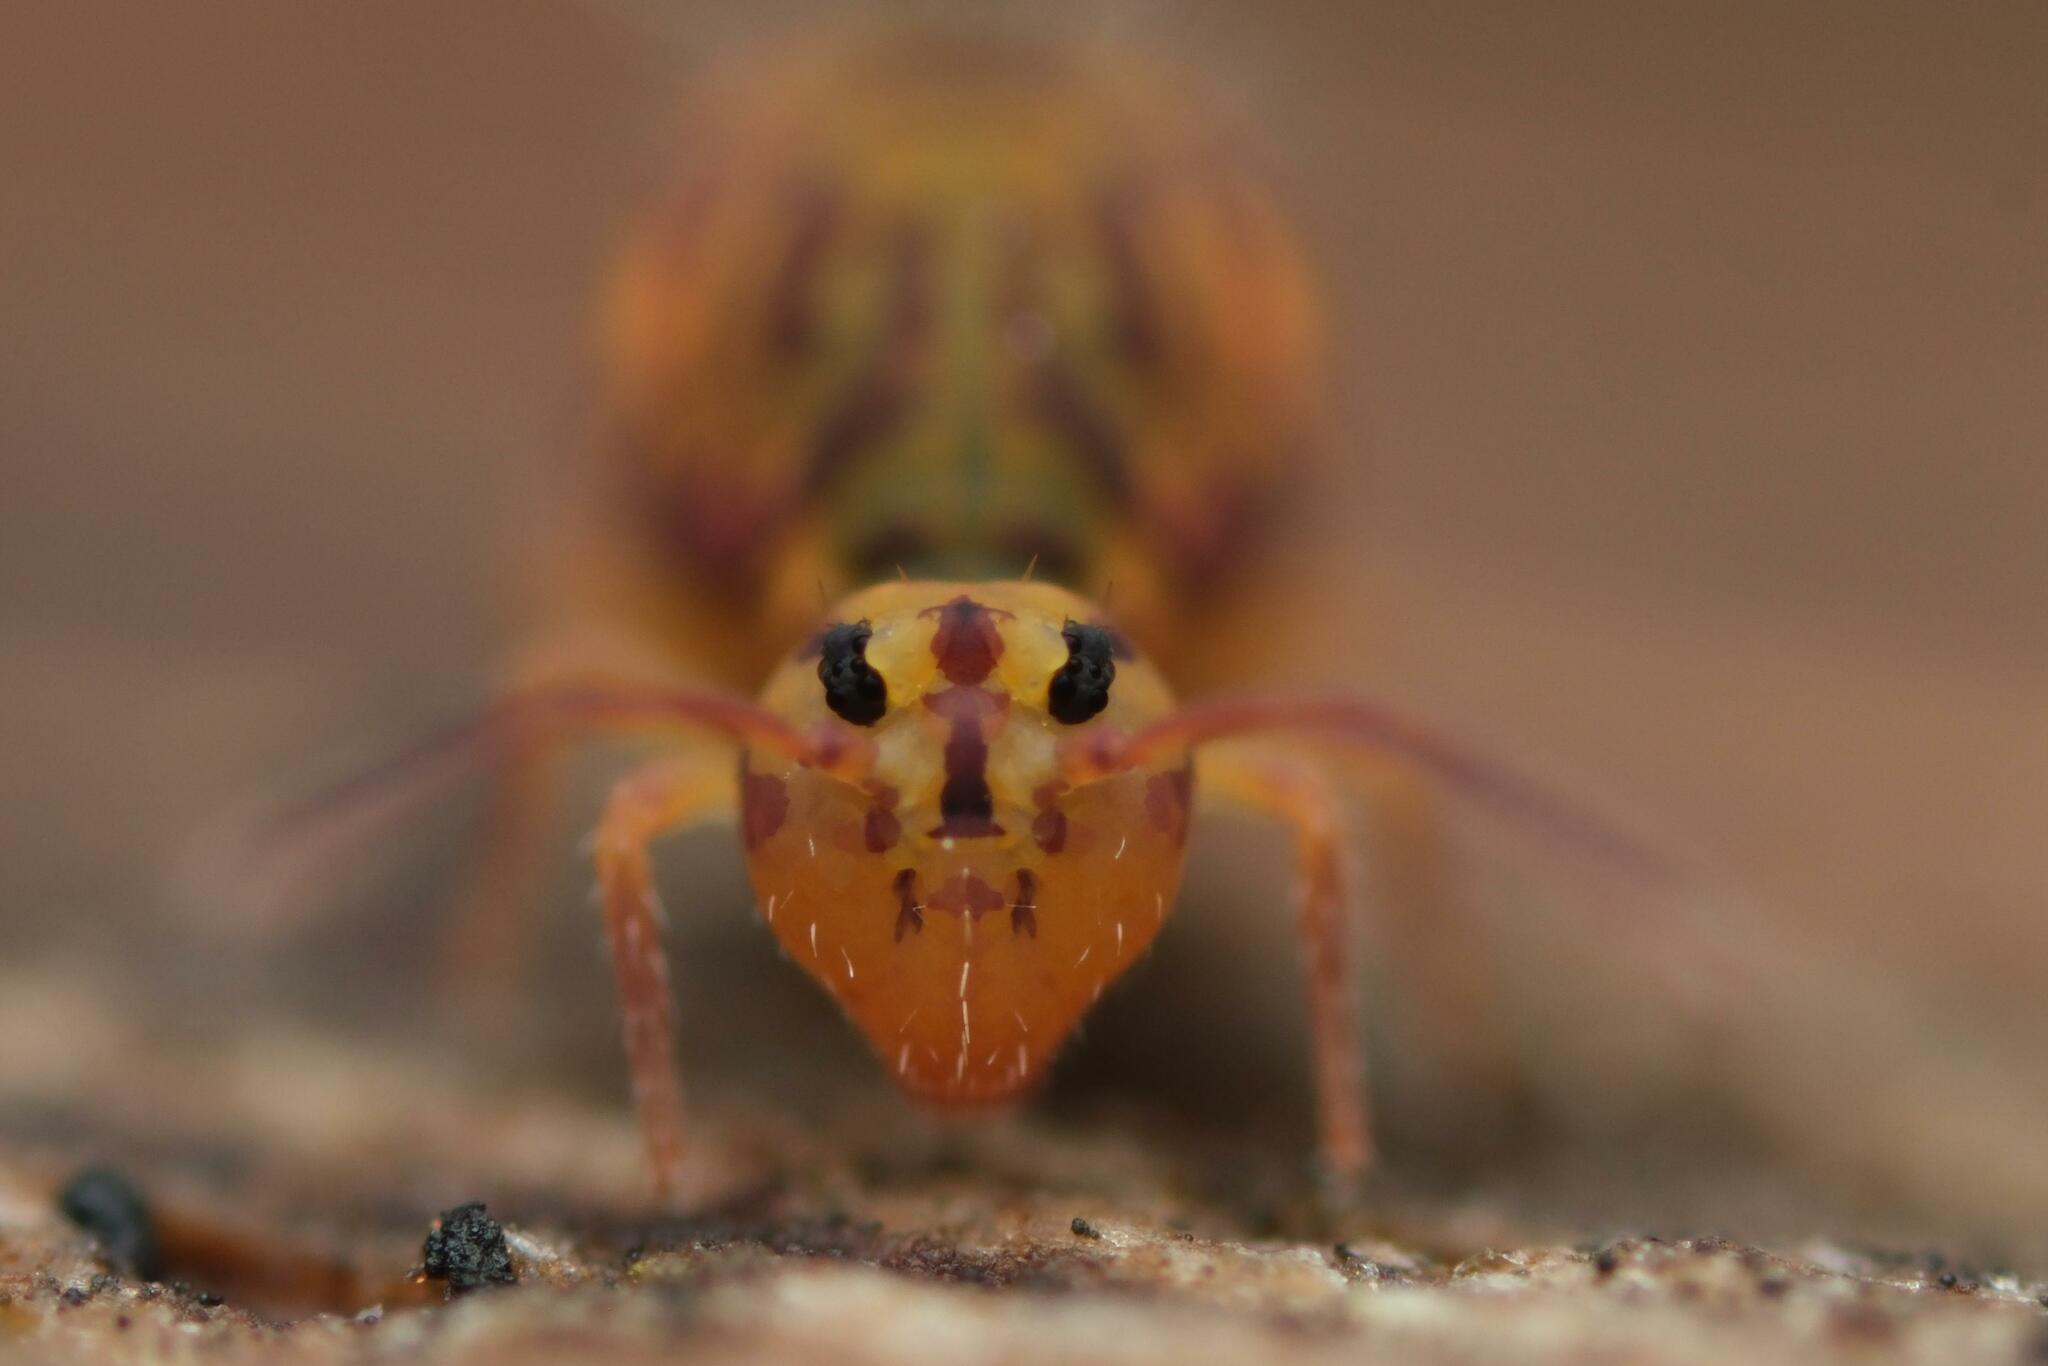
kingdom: Animalia
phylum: Arthropoda
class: Collembola
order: Symphypleona
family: Dicyrtomidae
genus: Dicyrtomina
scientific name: Dicyrtomina ornata
